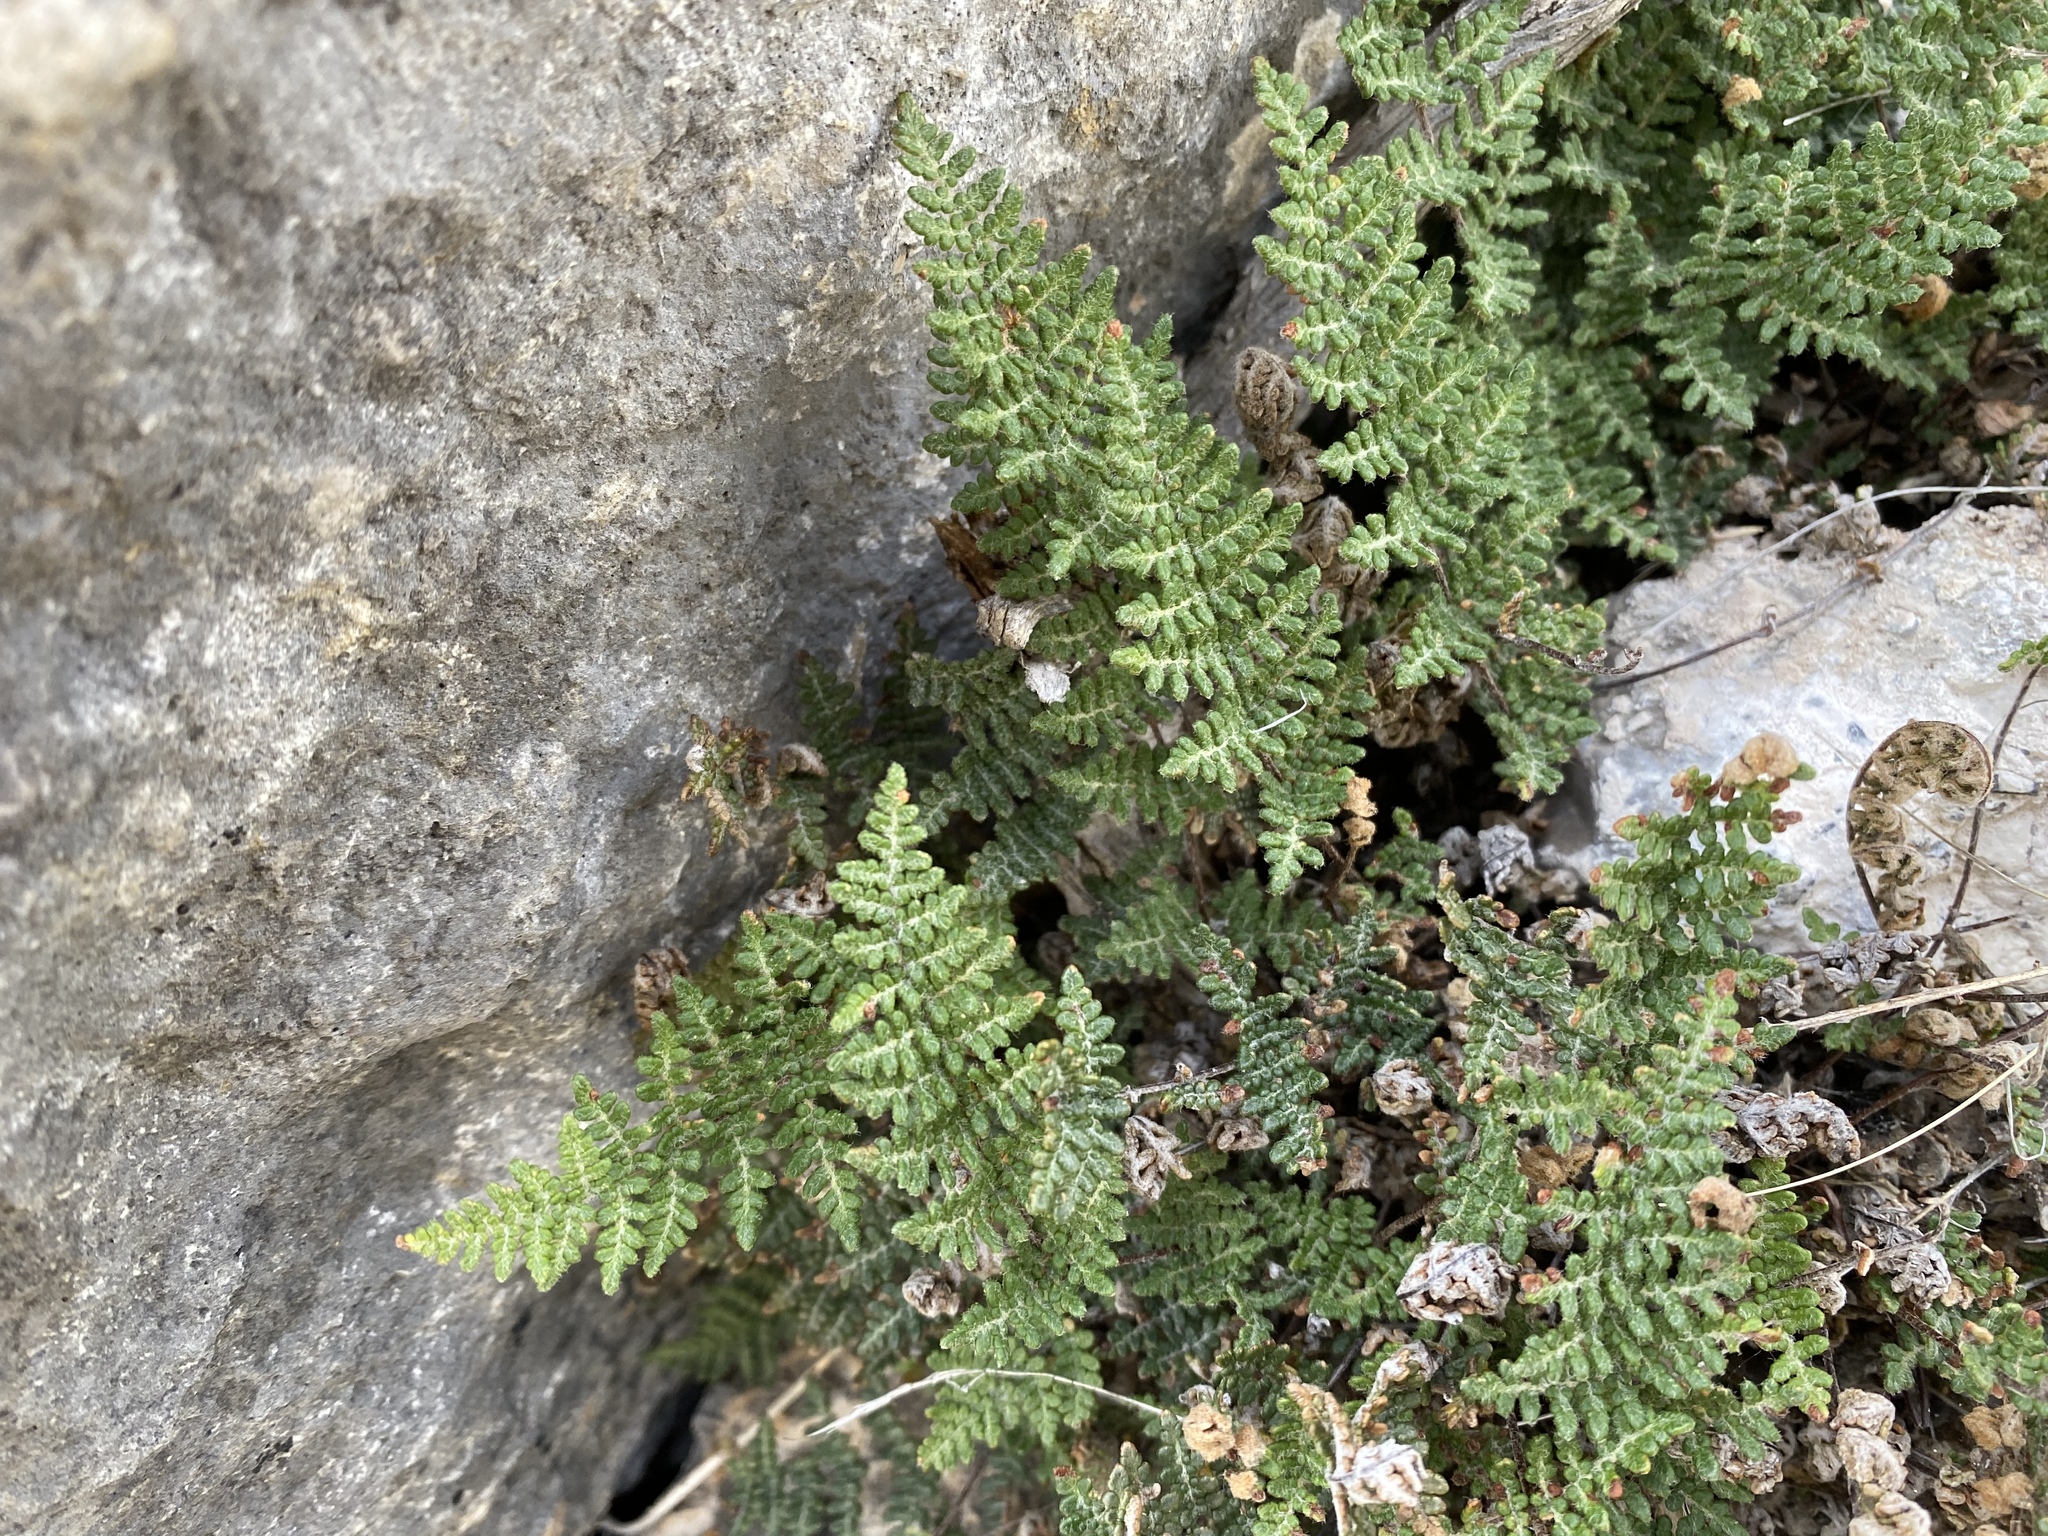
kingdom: Plantae
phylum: Tracheophyta
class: Polypodiopsida
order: Polypodiales
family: Pteridaceae
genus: Myriopteris
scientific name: Myriopteris gracilis
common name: Fee's lip fern
